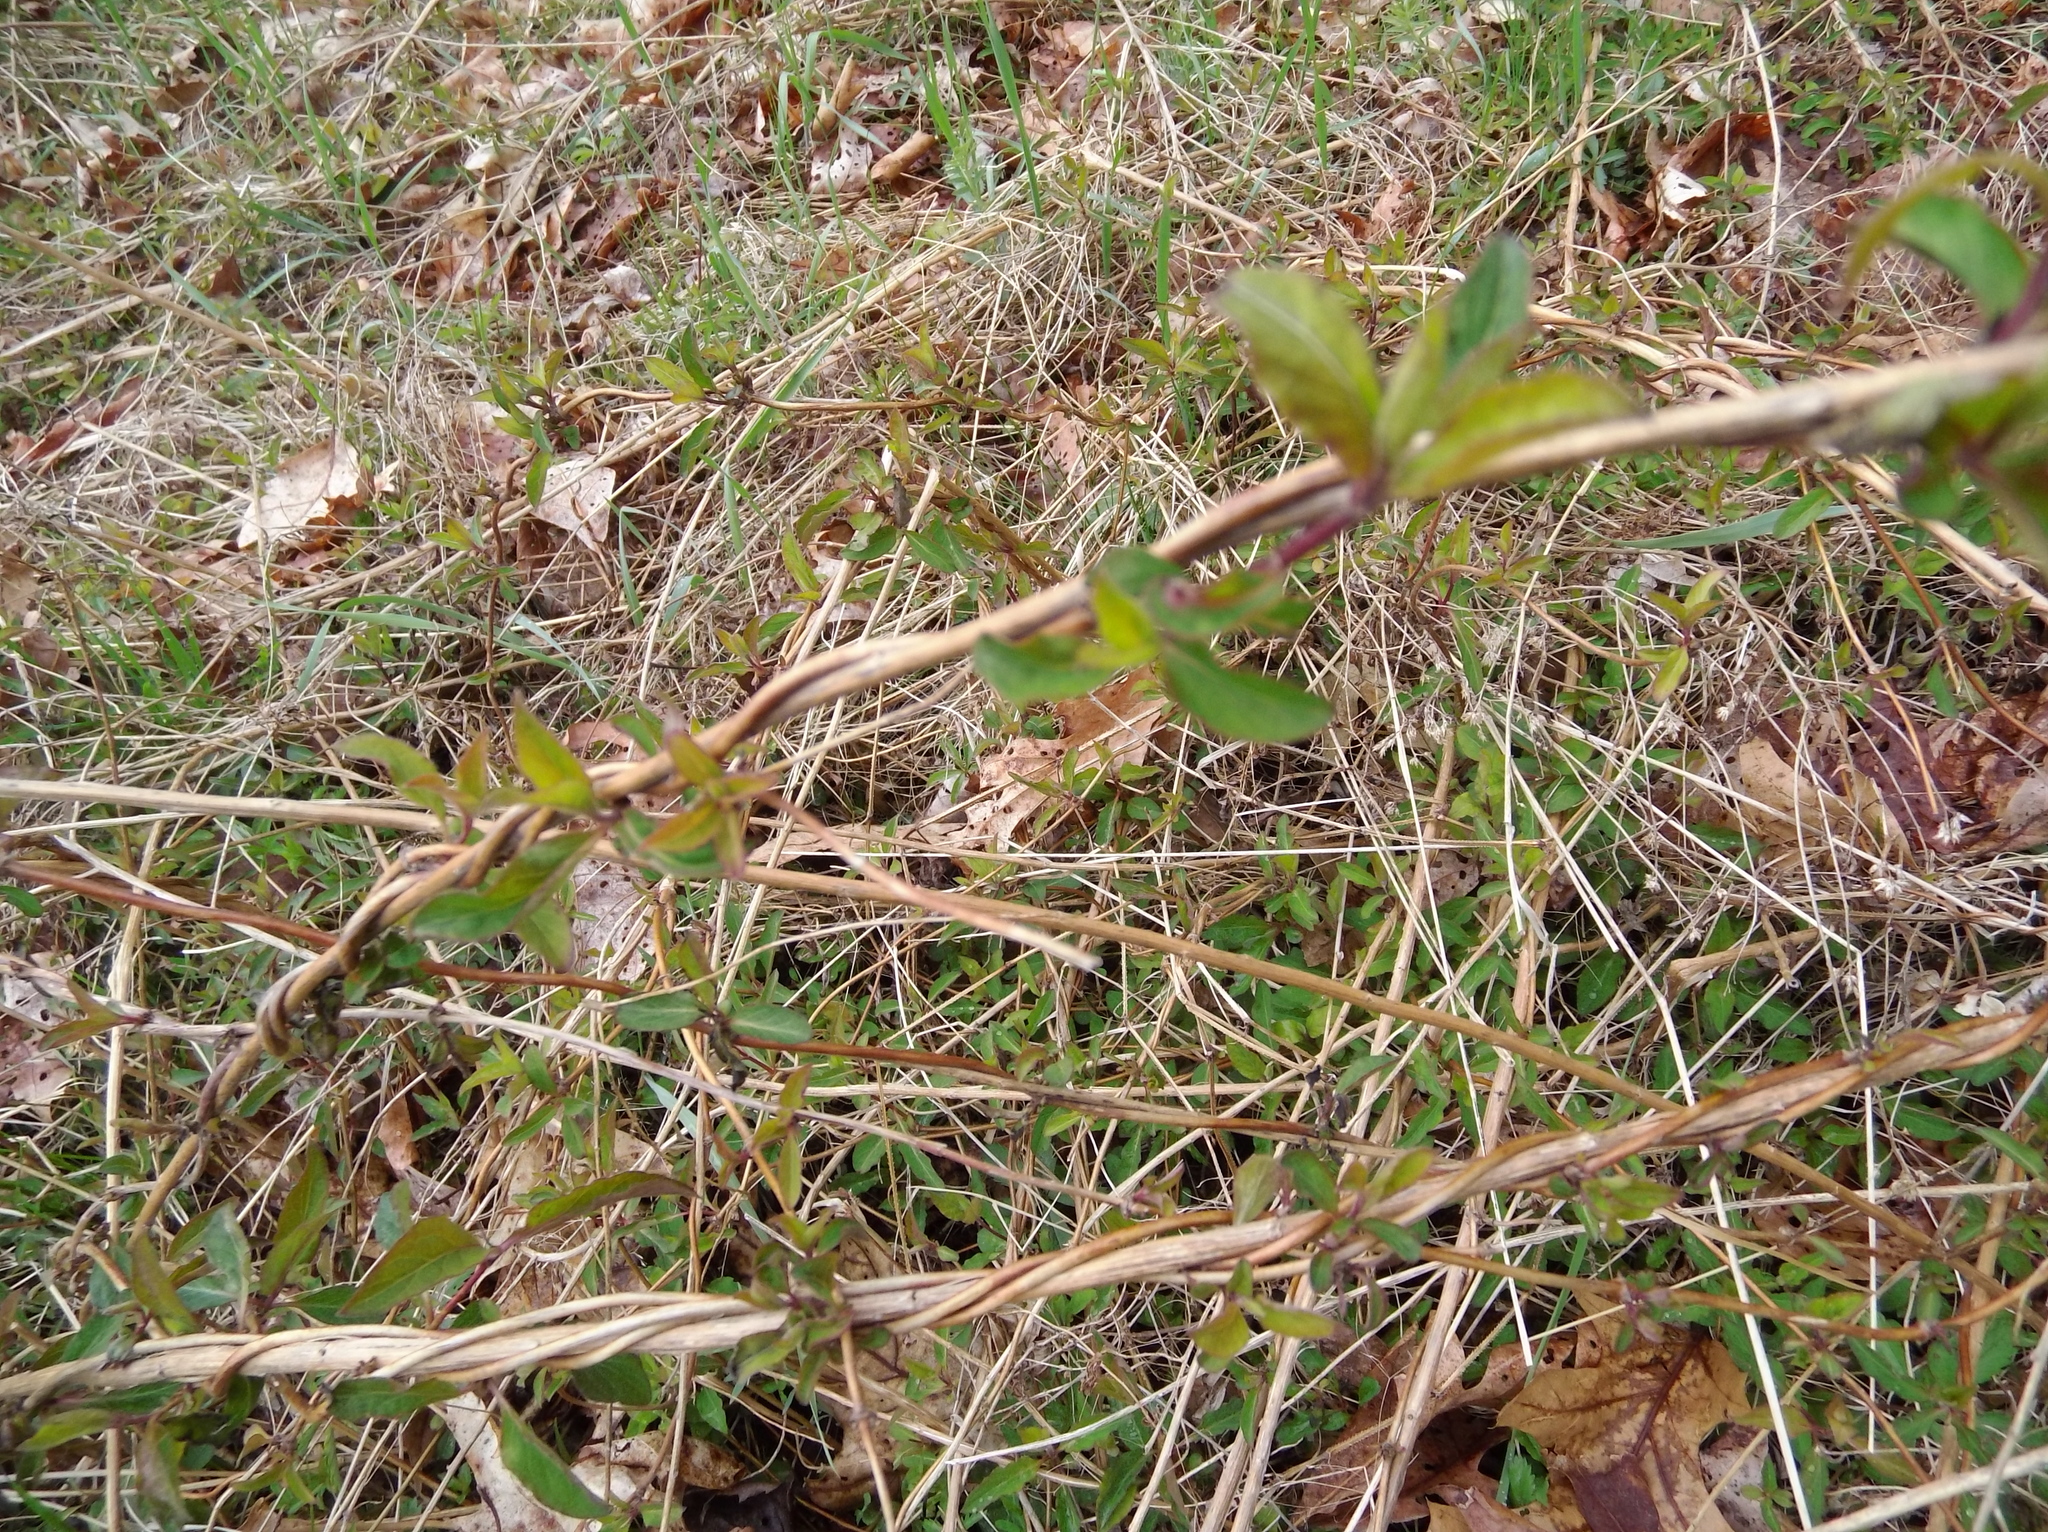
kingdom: Plantae
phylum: Tracheophyta
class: Magnoliopsida
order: Dipsacales
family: Caprifoliaceae
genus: Lonicera
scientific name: Lonicera japonica
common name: Japanese honeysuckle
